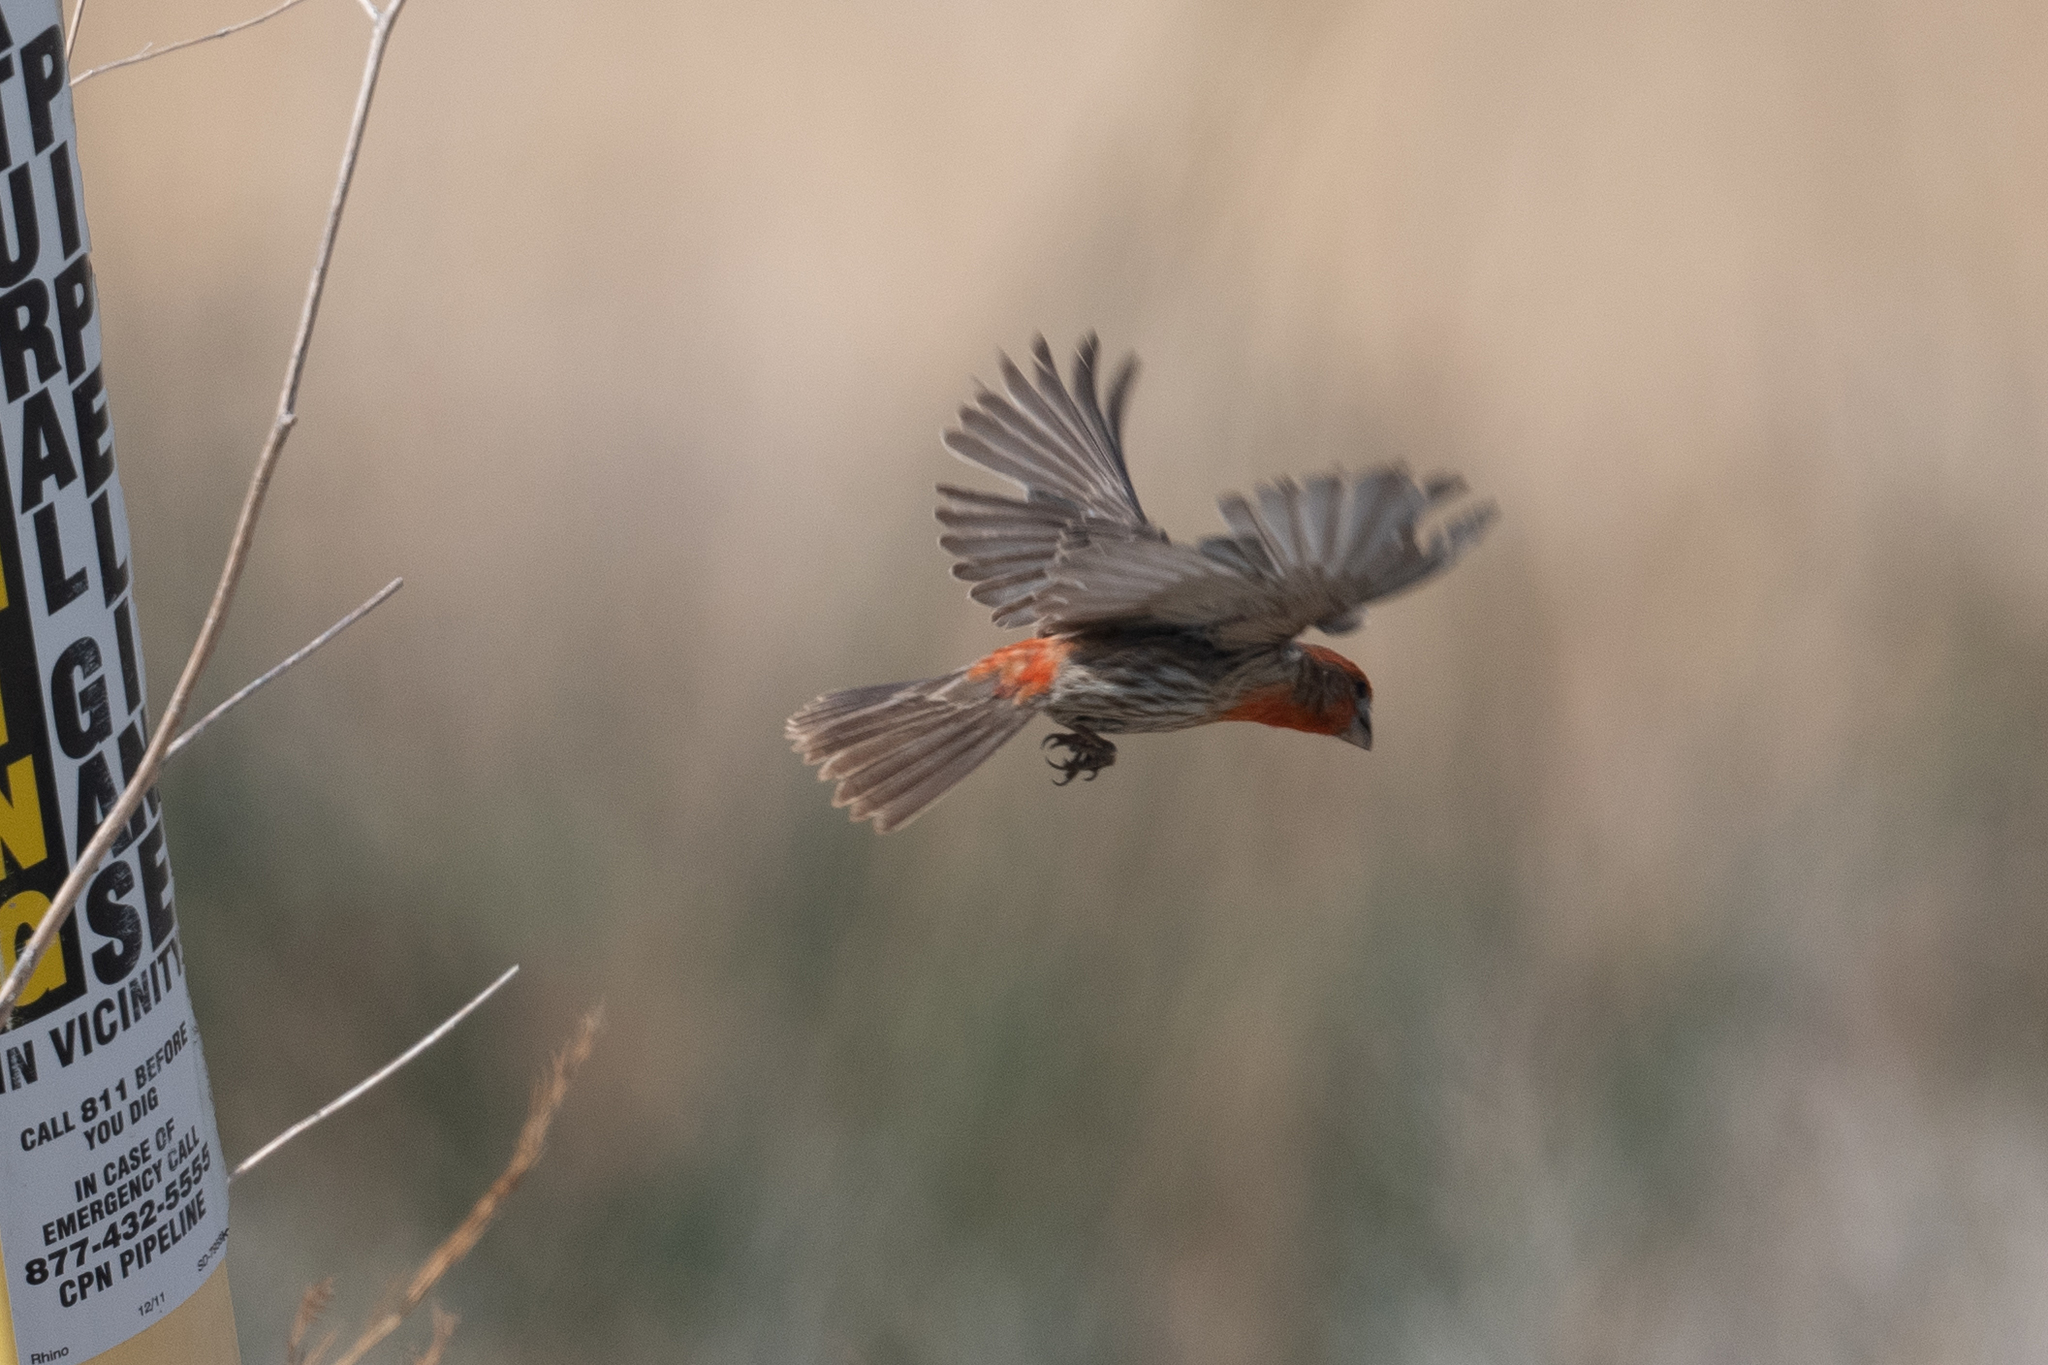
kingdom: Animalia
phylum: Chordata
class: Aves
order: Passeriformes
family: Fringillidae
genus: Haemorhous
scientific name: Haemorhous mexicanus
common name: House finch
